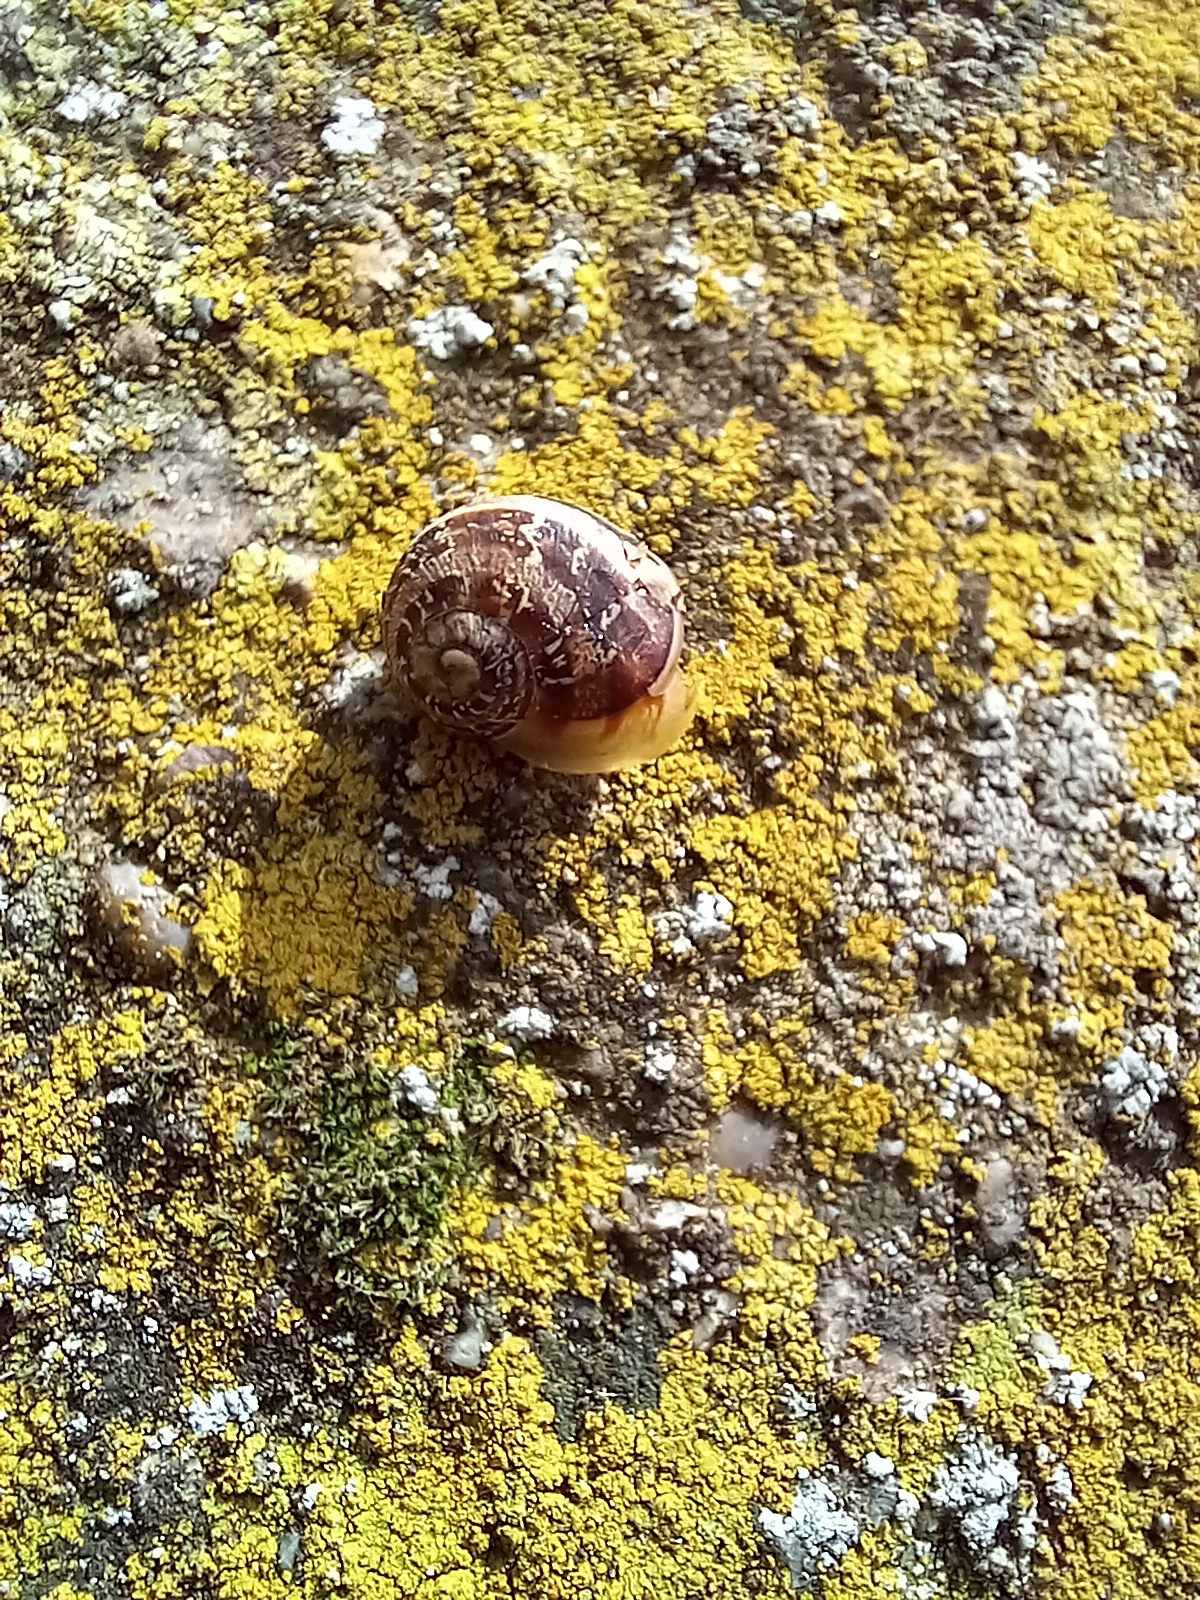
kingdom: Animalia
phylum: Mollusca
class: Gastropoda
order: Stylommatophora
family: Helicidae
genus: Cornu
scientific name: Cornu aspersum
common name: Brown garden snail
